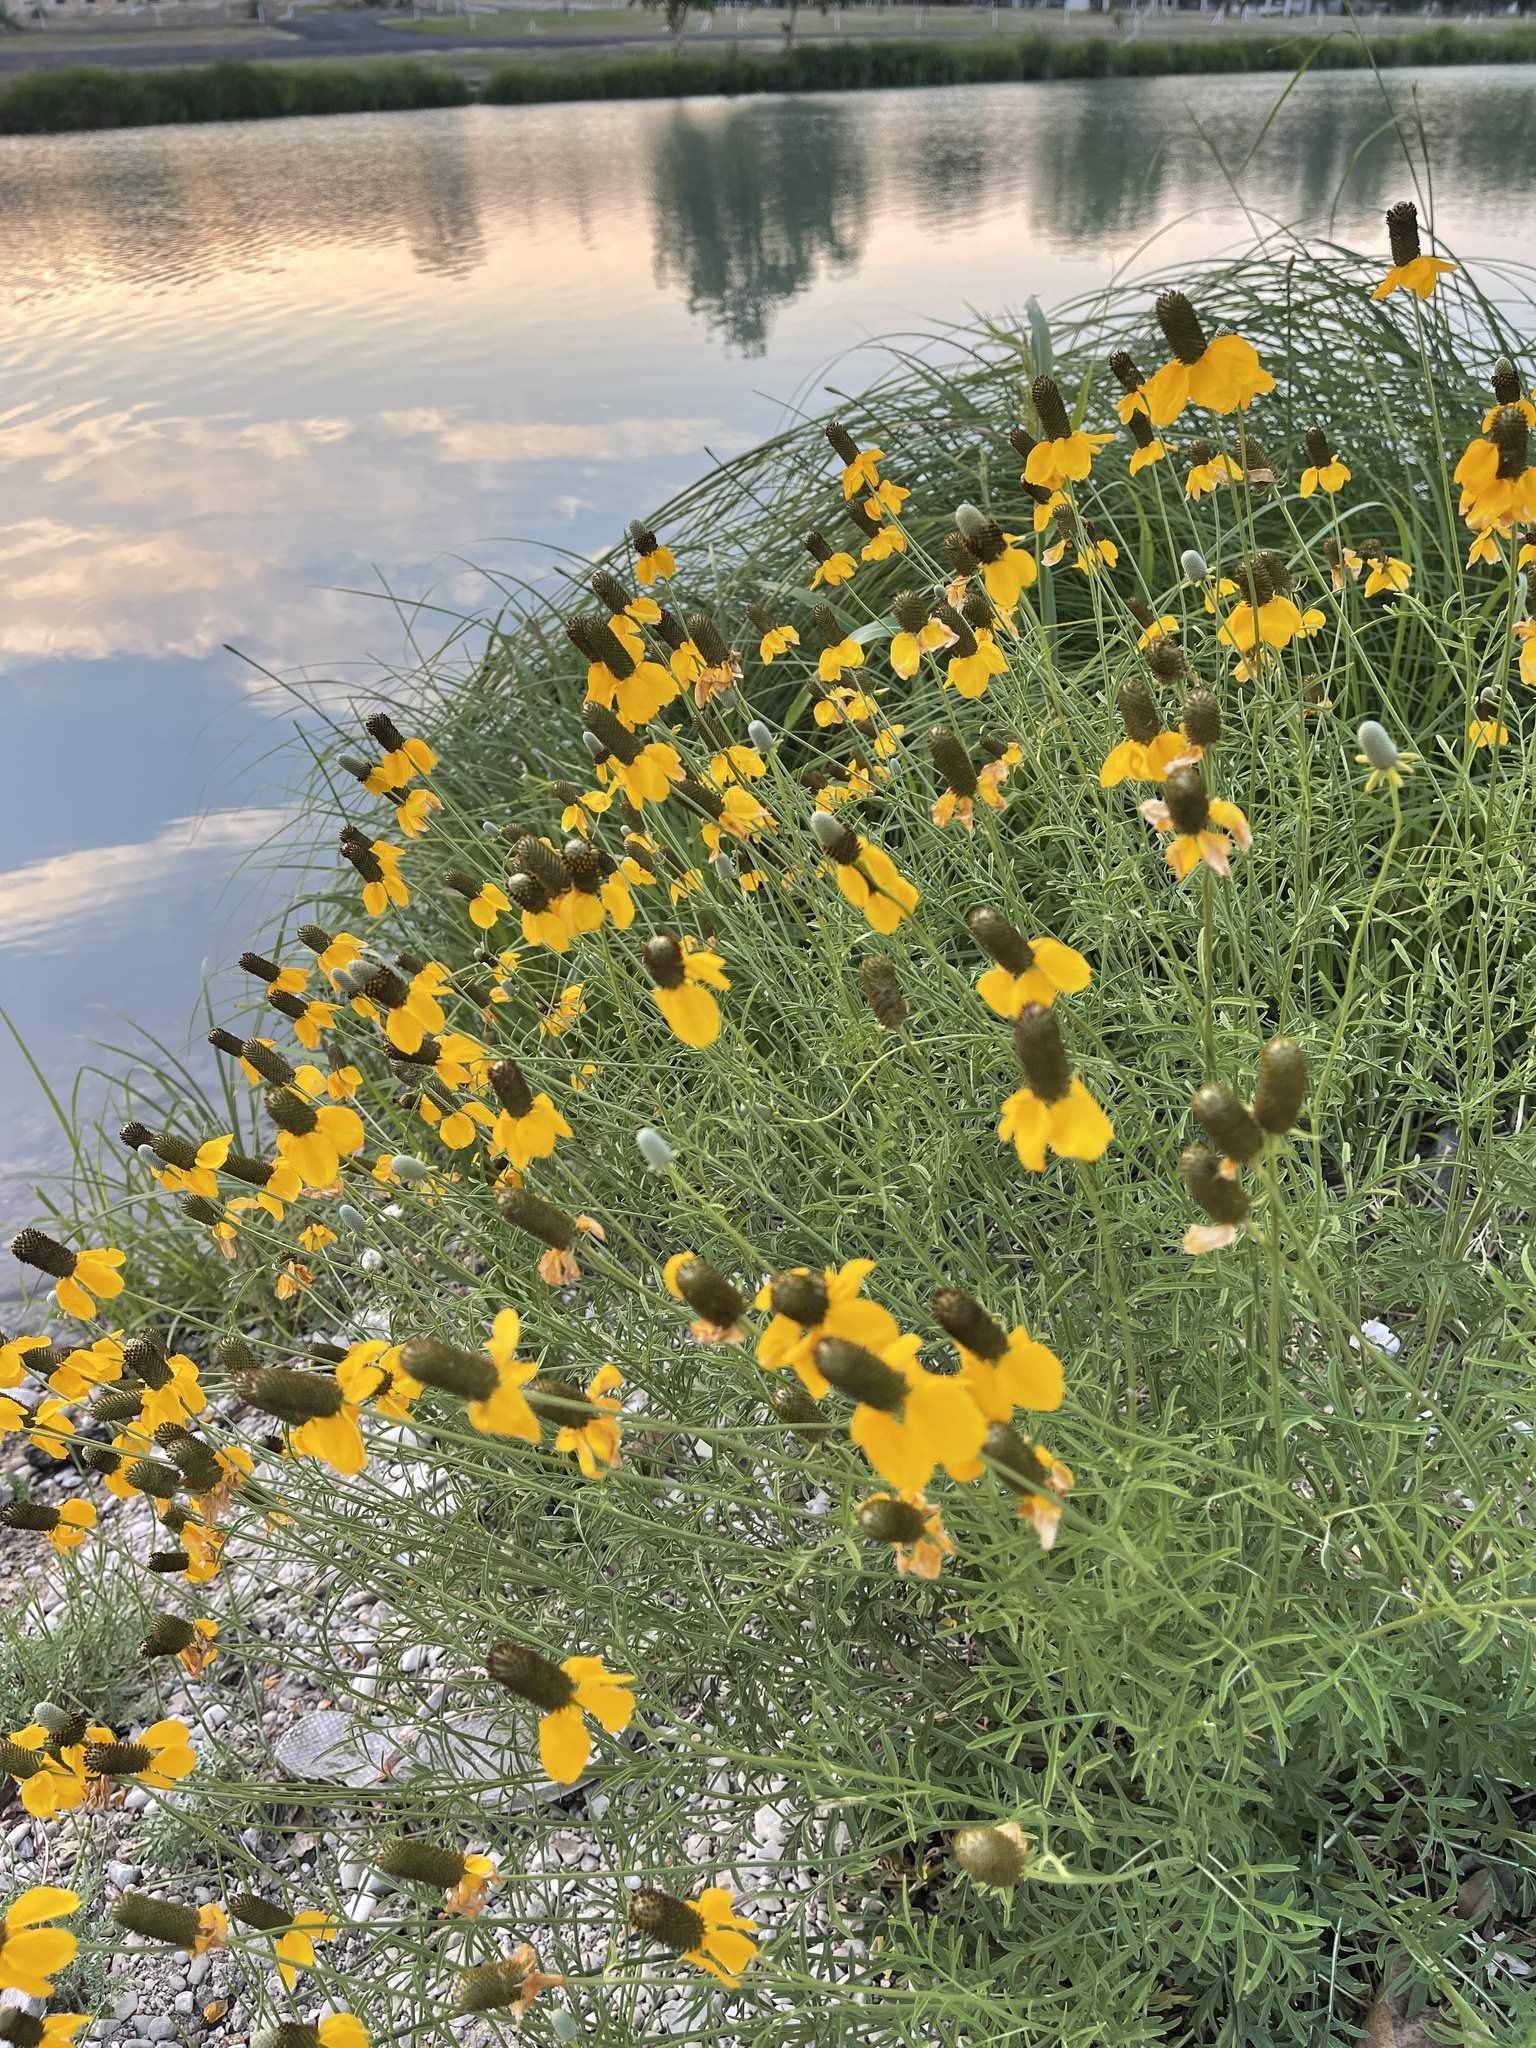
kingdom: Plantae
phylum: Tracheophyta
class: Magnoliopsida
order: Asterales
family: Asteraceae
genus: Ratibida
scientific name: Ratibida columnifera
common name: Prairie coneflower
